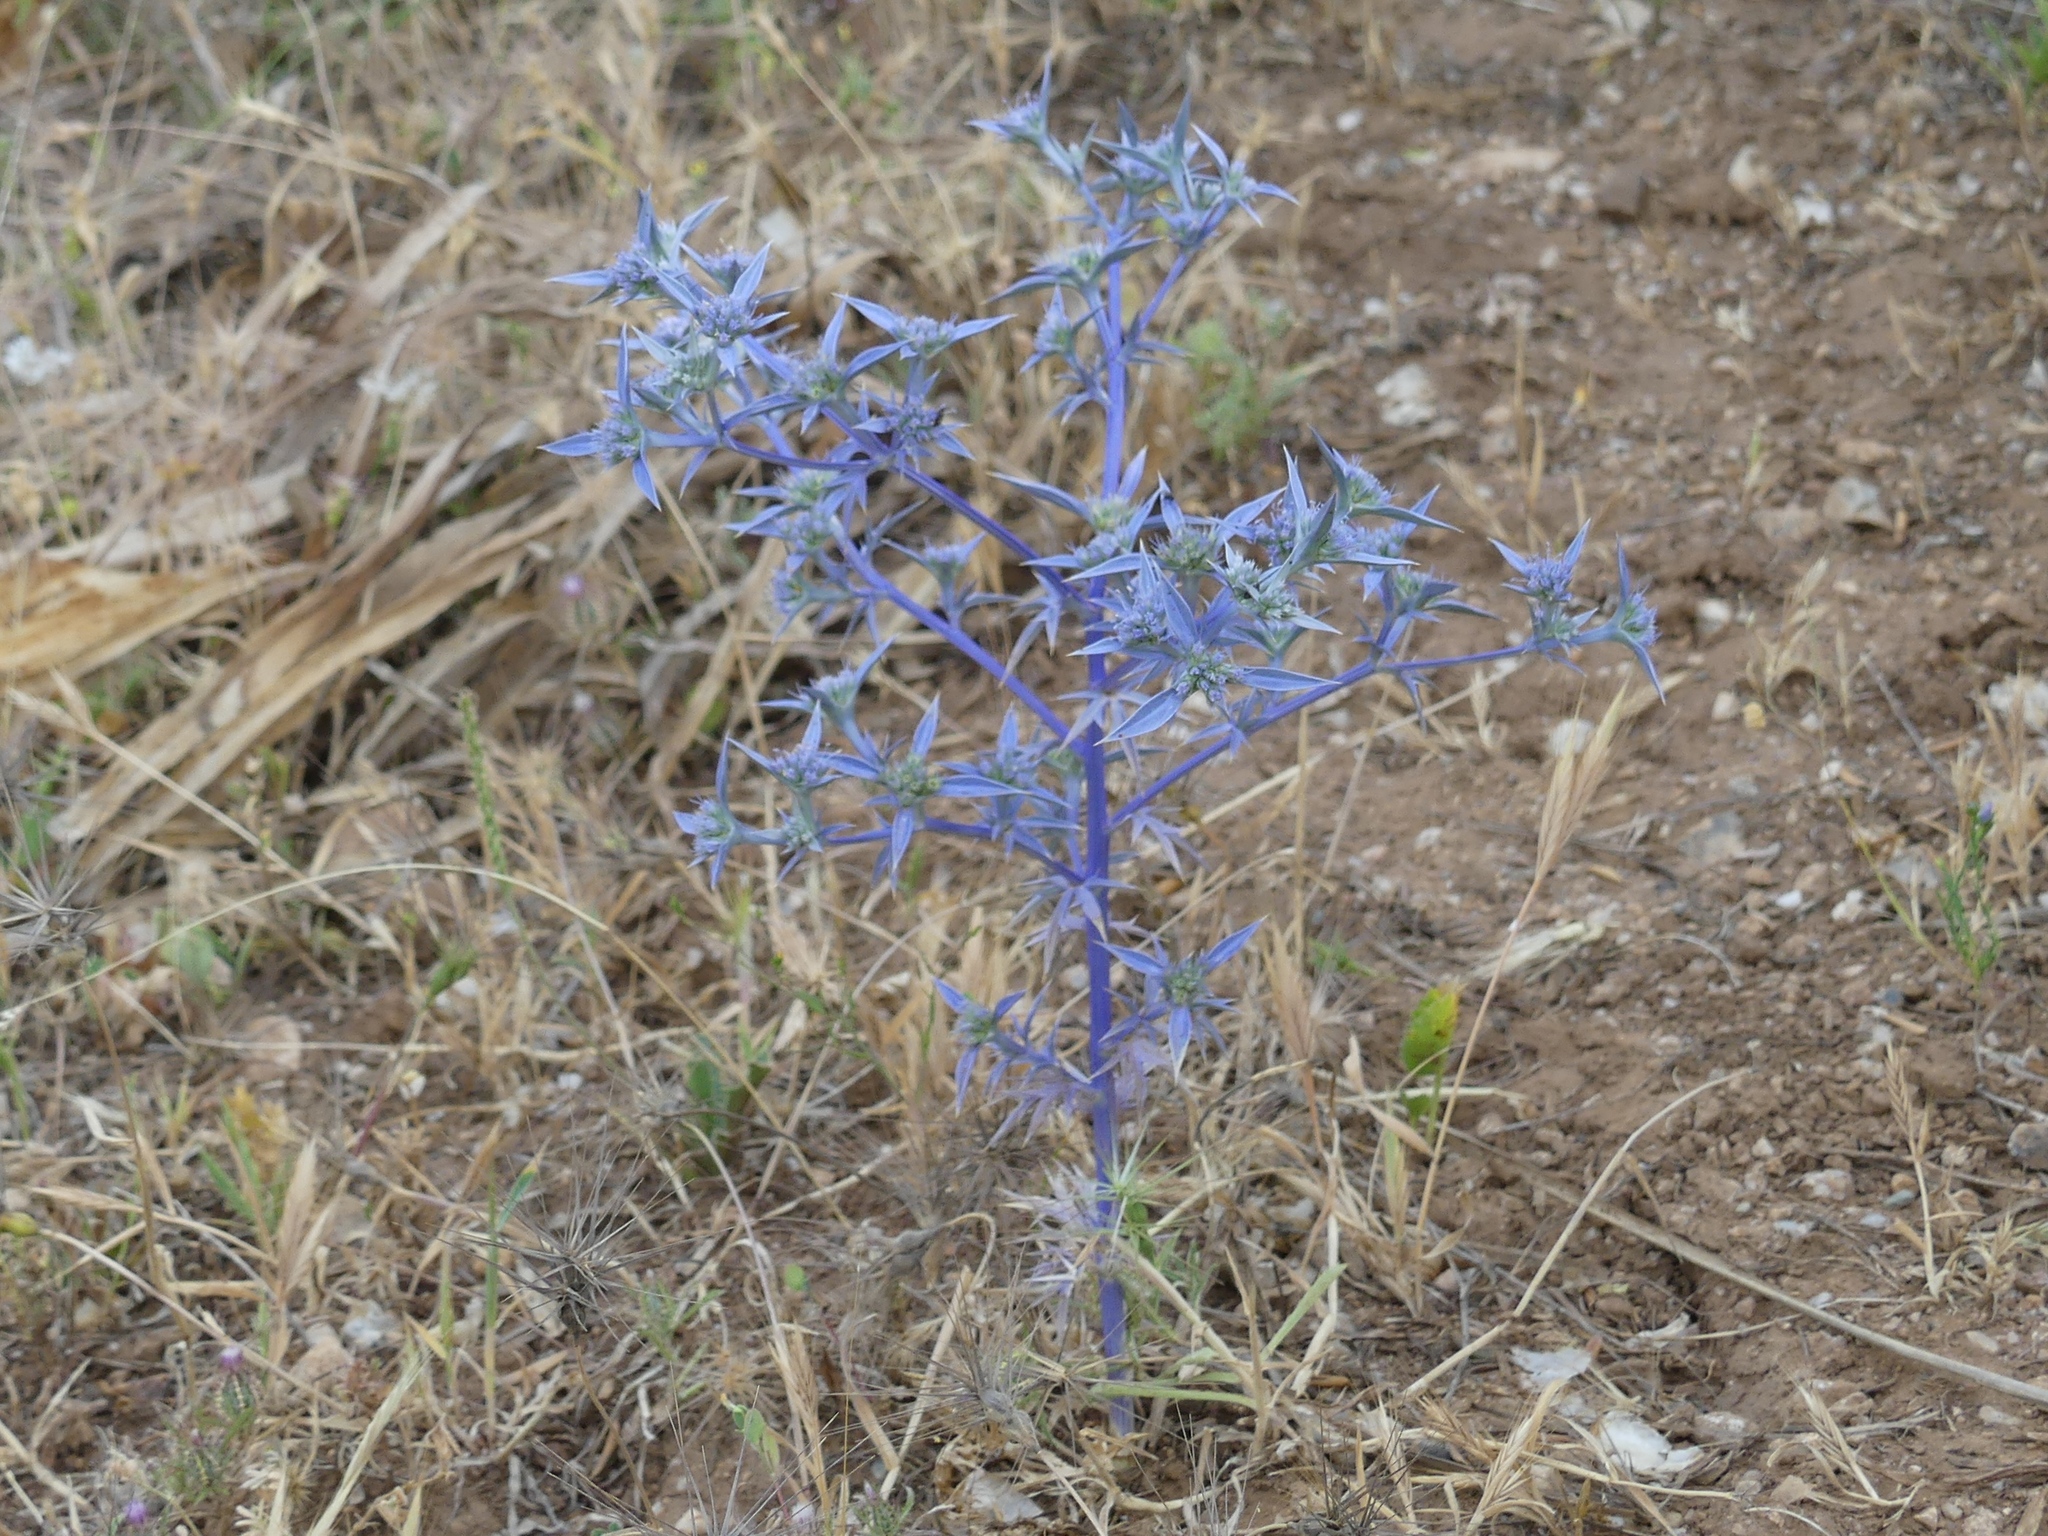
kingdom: Plantae
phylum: Tracheophyta
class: Magnoliopsida
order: Apiales
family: Apiaceae
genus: Eryngium
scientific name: Eryngium triquetrum
